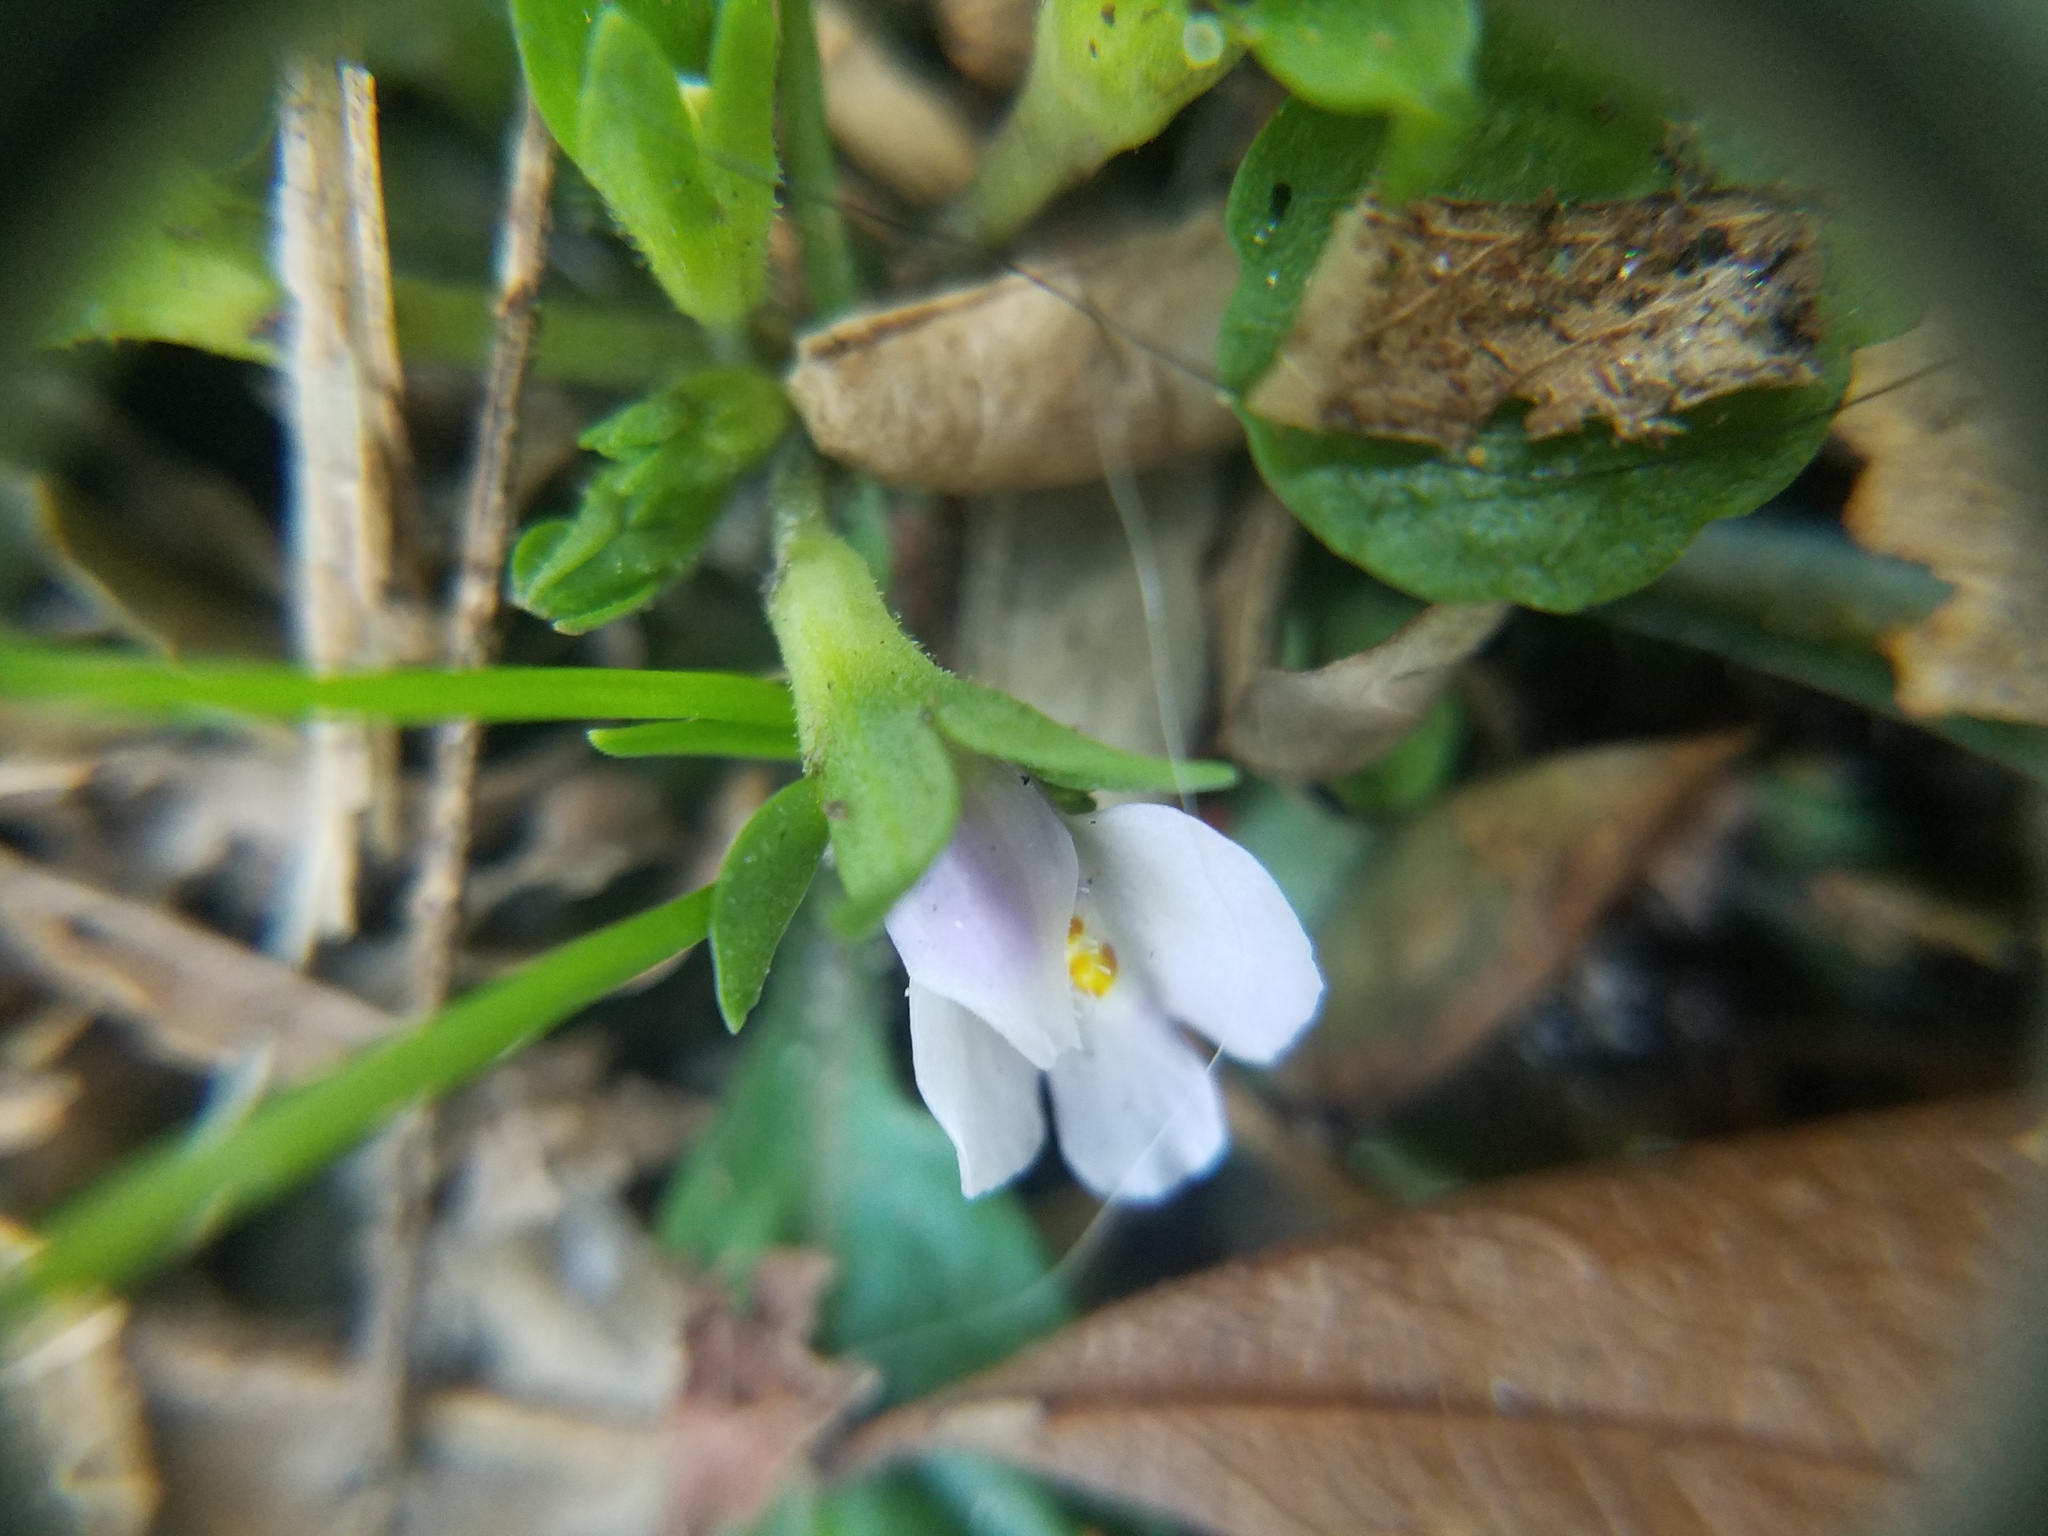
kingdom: Plantae
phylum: Tracheophyta
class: Magnoliopsida
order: Lamiales
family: Mazaceae
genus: Mazus
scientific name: Mazus pumilus
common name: Japanese mazus
